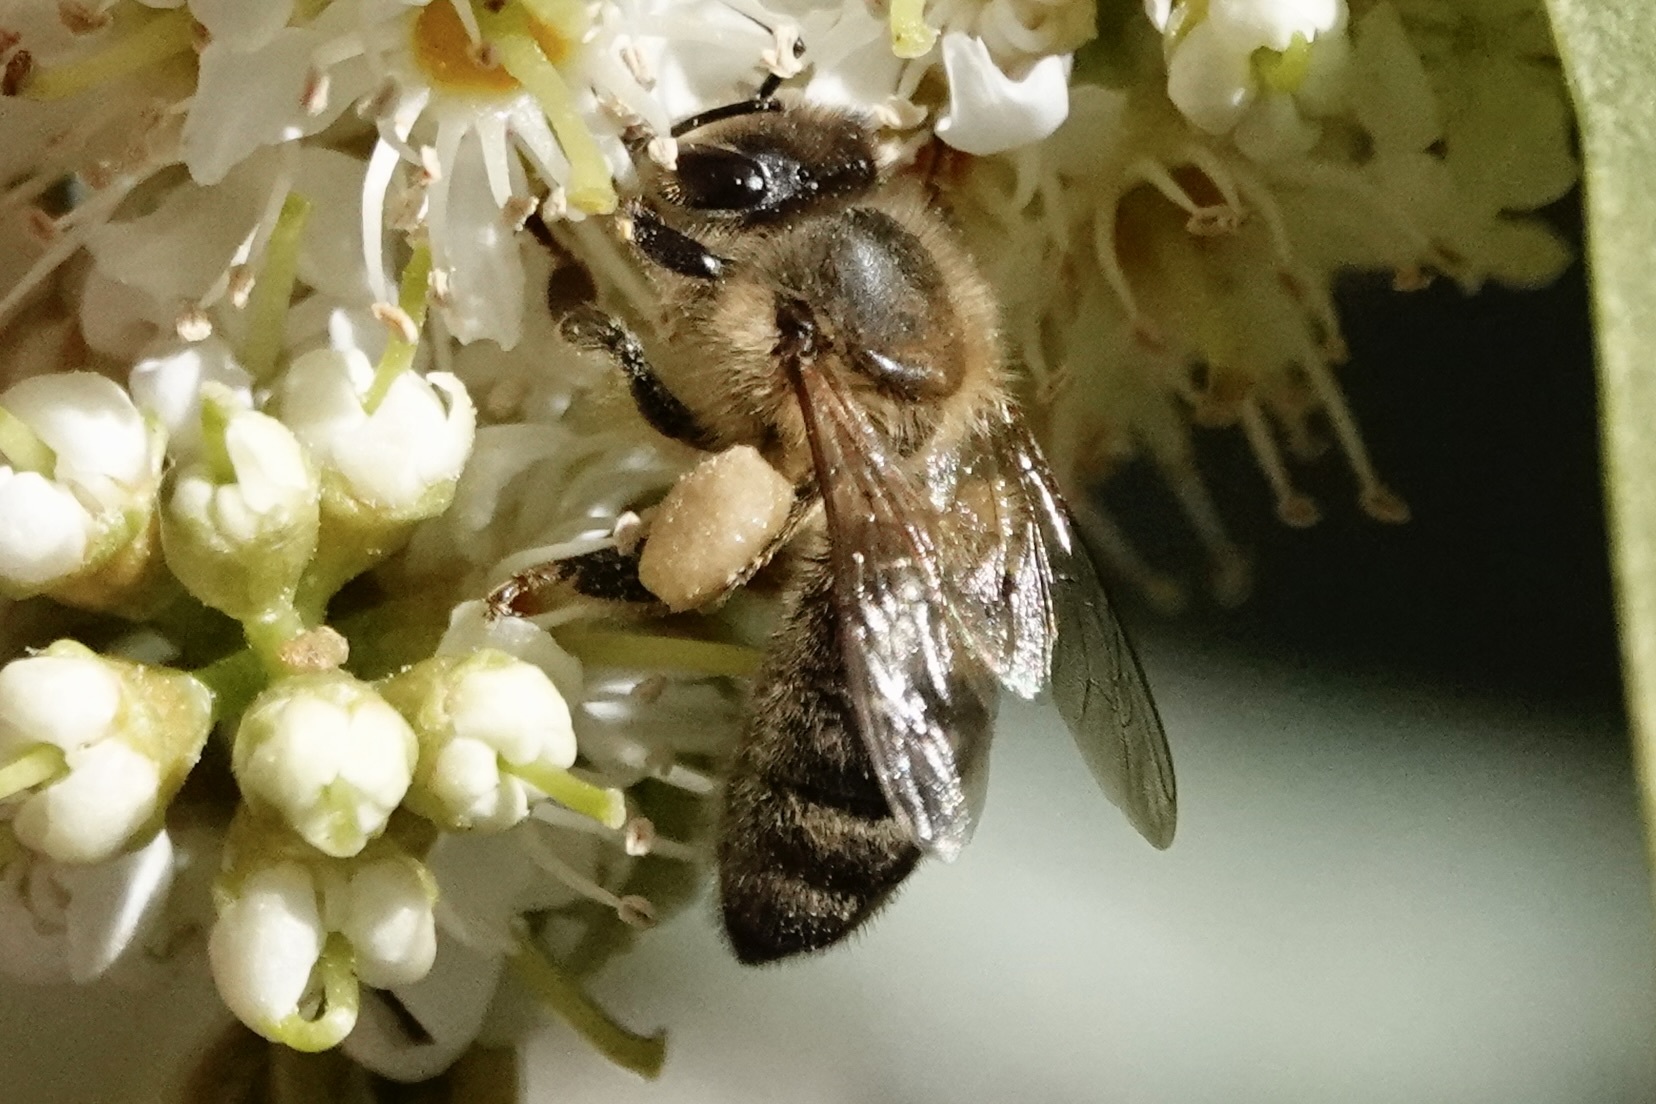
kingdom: Animalia
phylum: Arthropoda
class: Insecta
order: Hymenoptera
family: Apidae
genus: Apis
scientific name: Apis mellifera
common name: Honey bee
